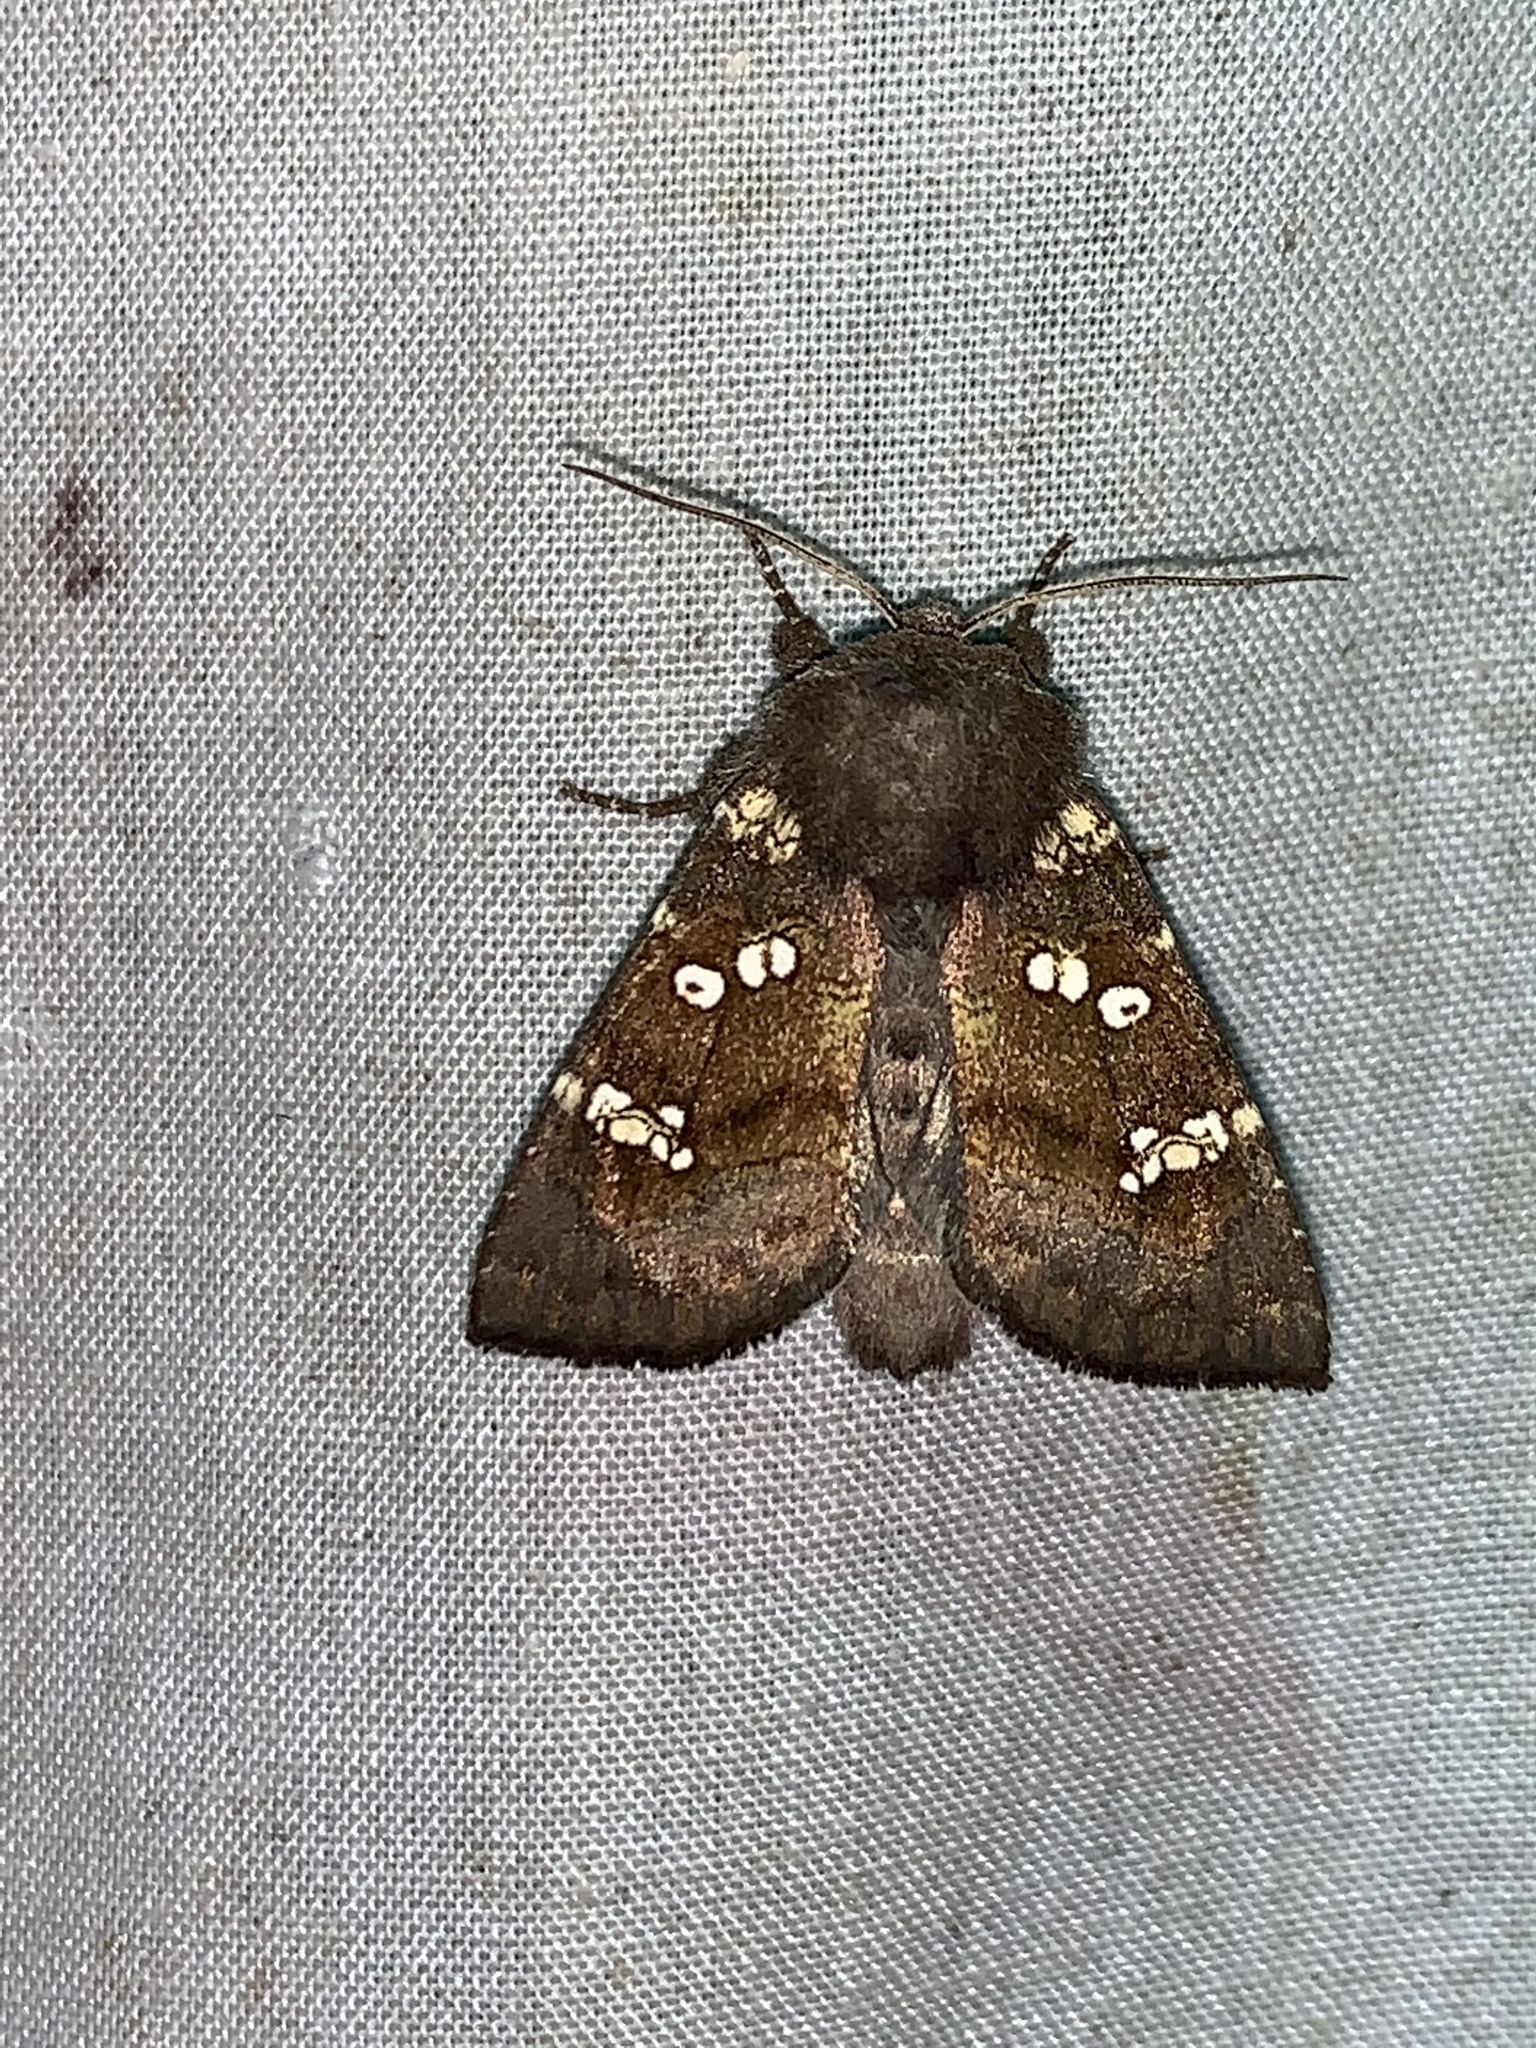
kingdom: Animalia
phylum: Arthropoda
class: Insecta
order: Lepidoptera
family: Noctuidae
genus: Papaipema
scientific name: Papaipema unimoda
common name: Meadow rue borer moth
